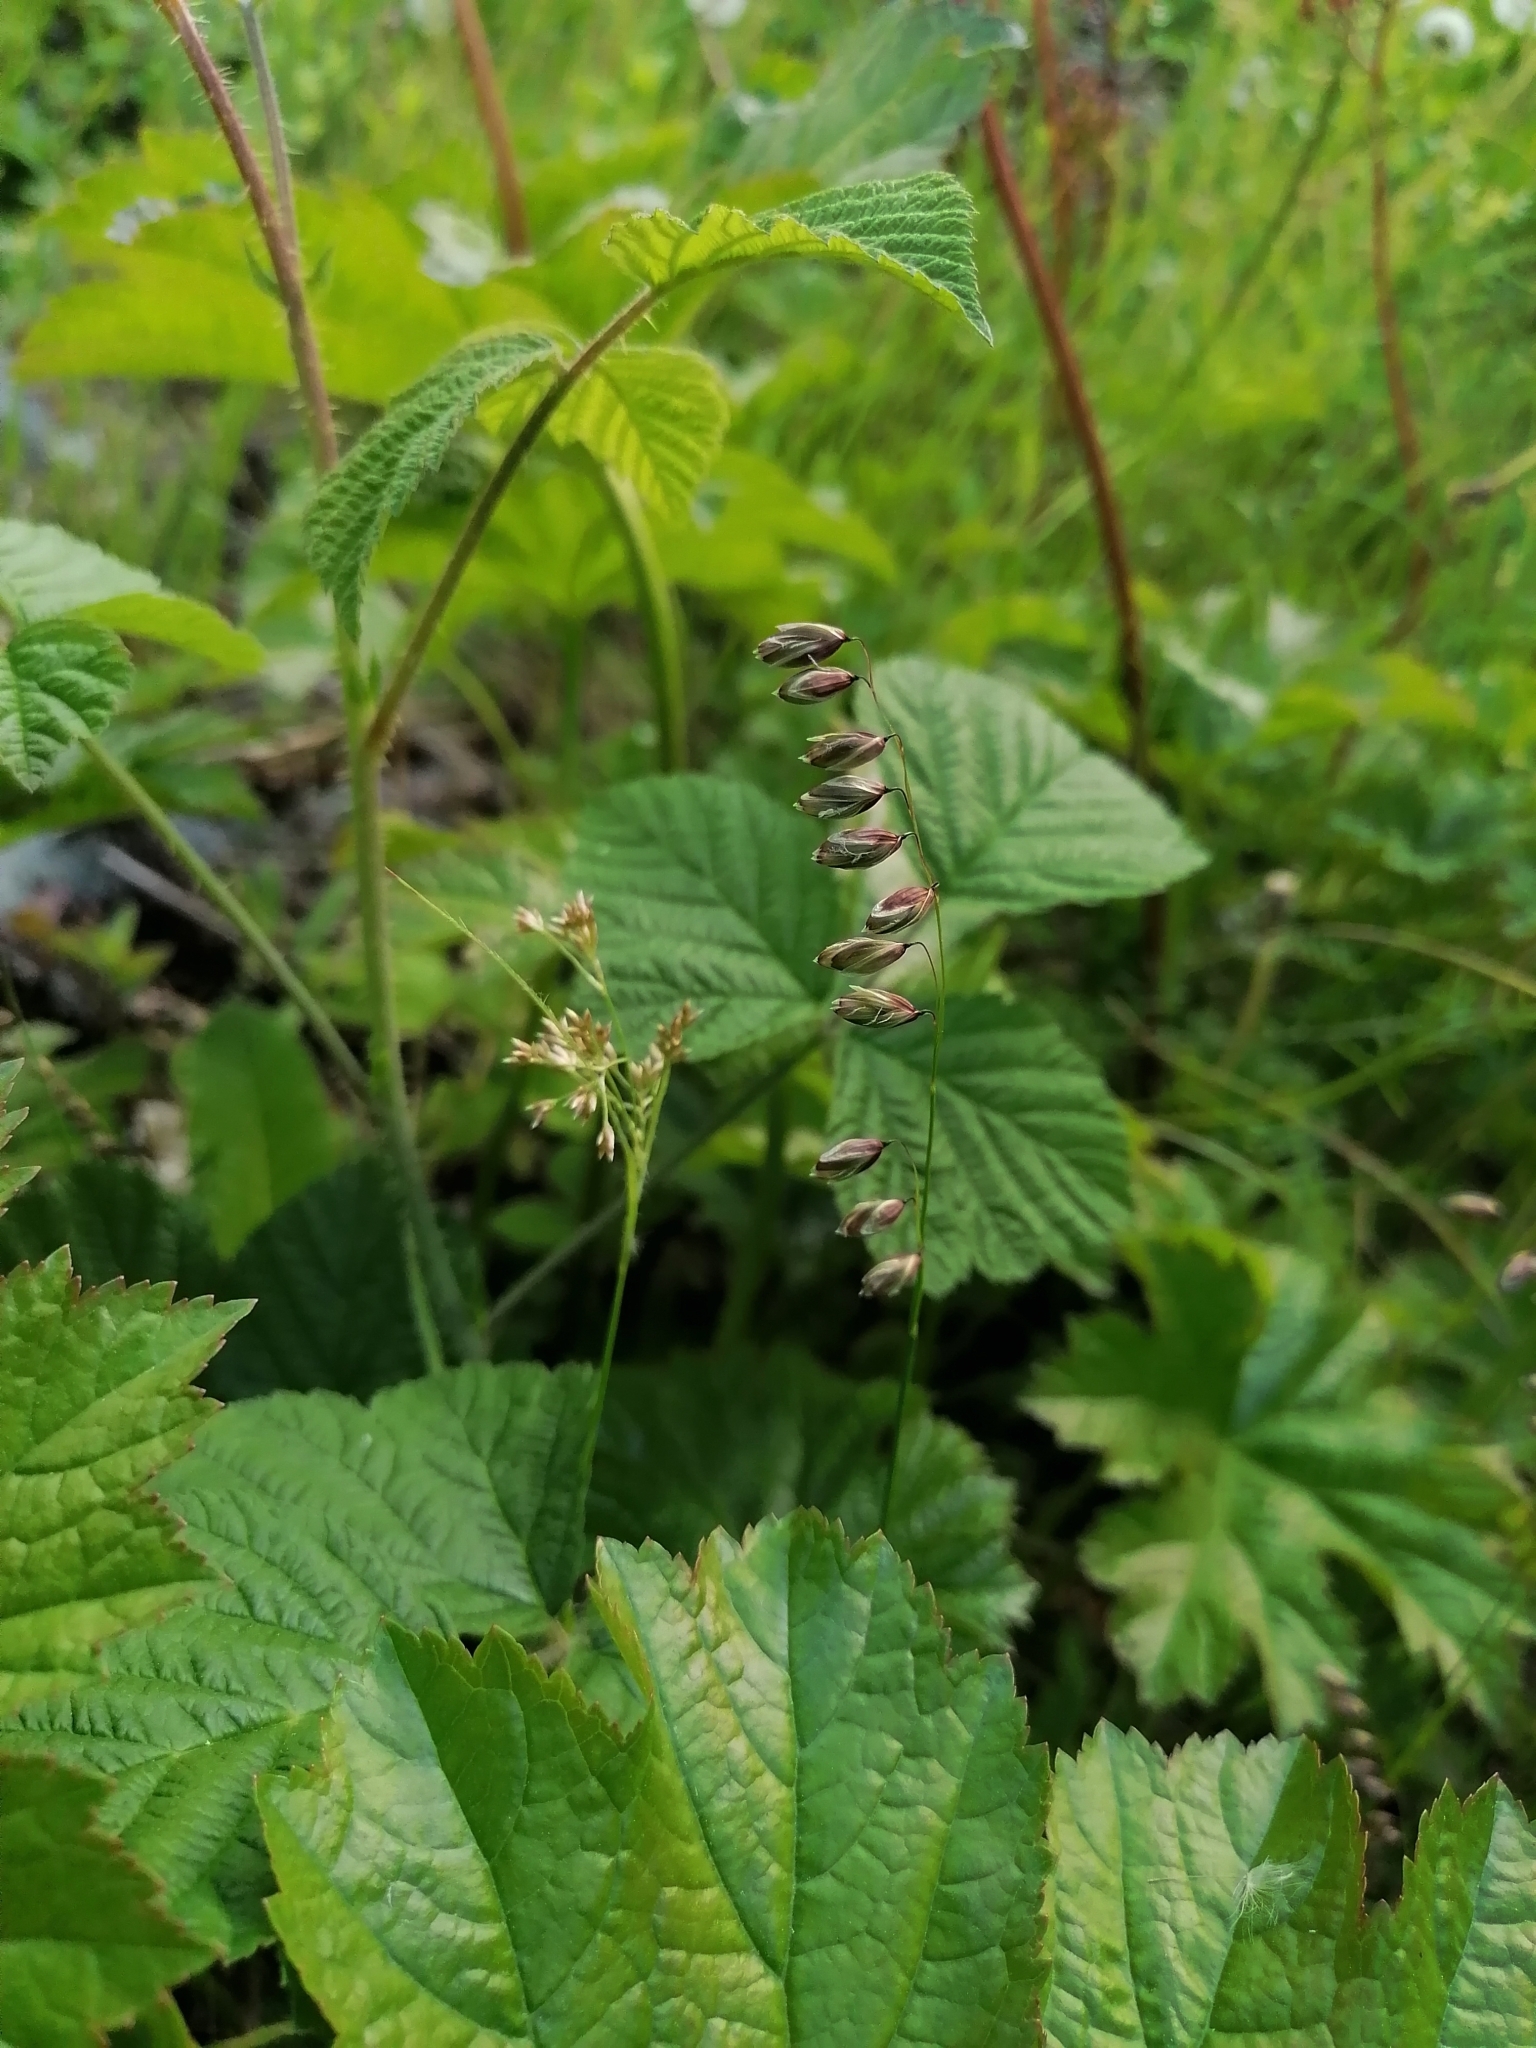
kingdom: Plantae
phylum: Tracheophyta
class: Liliopsida
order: Poales
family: Poaceae
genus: Melica
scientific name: Melica nutans
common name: Mountain melick
